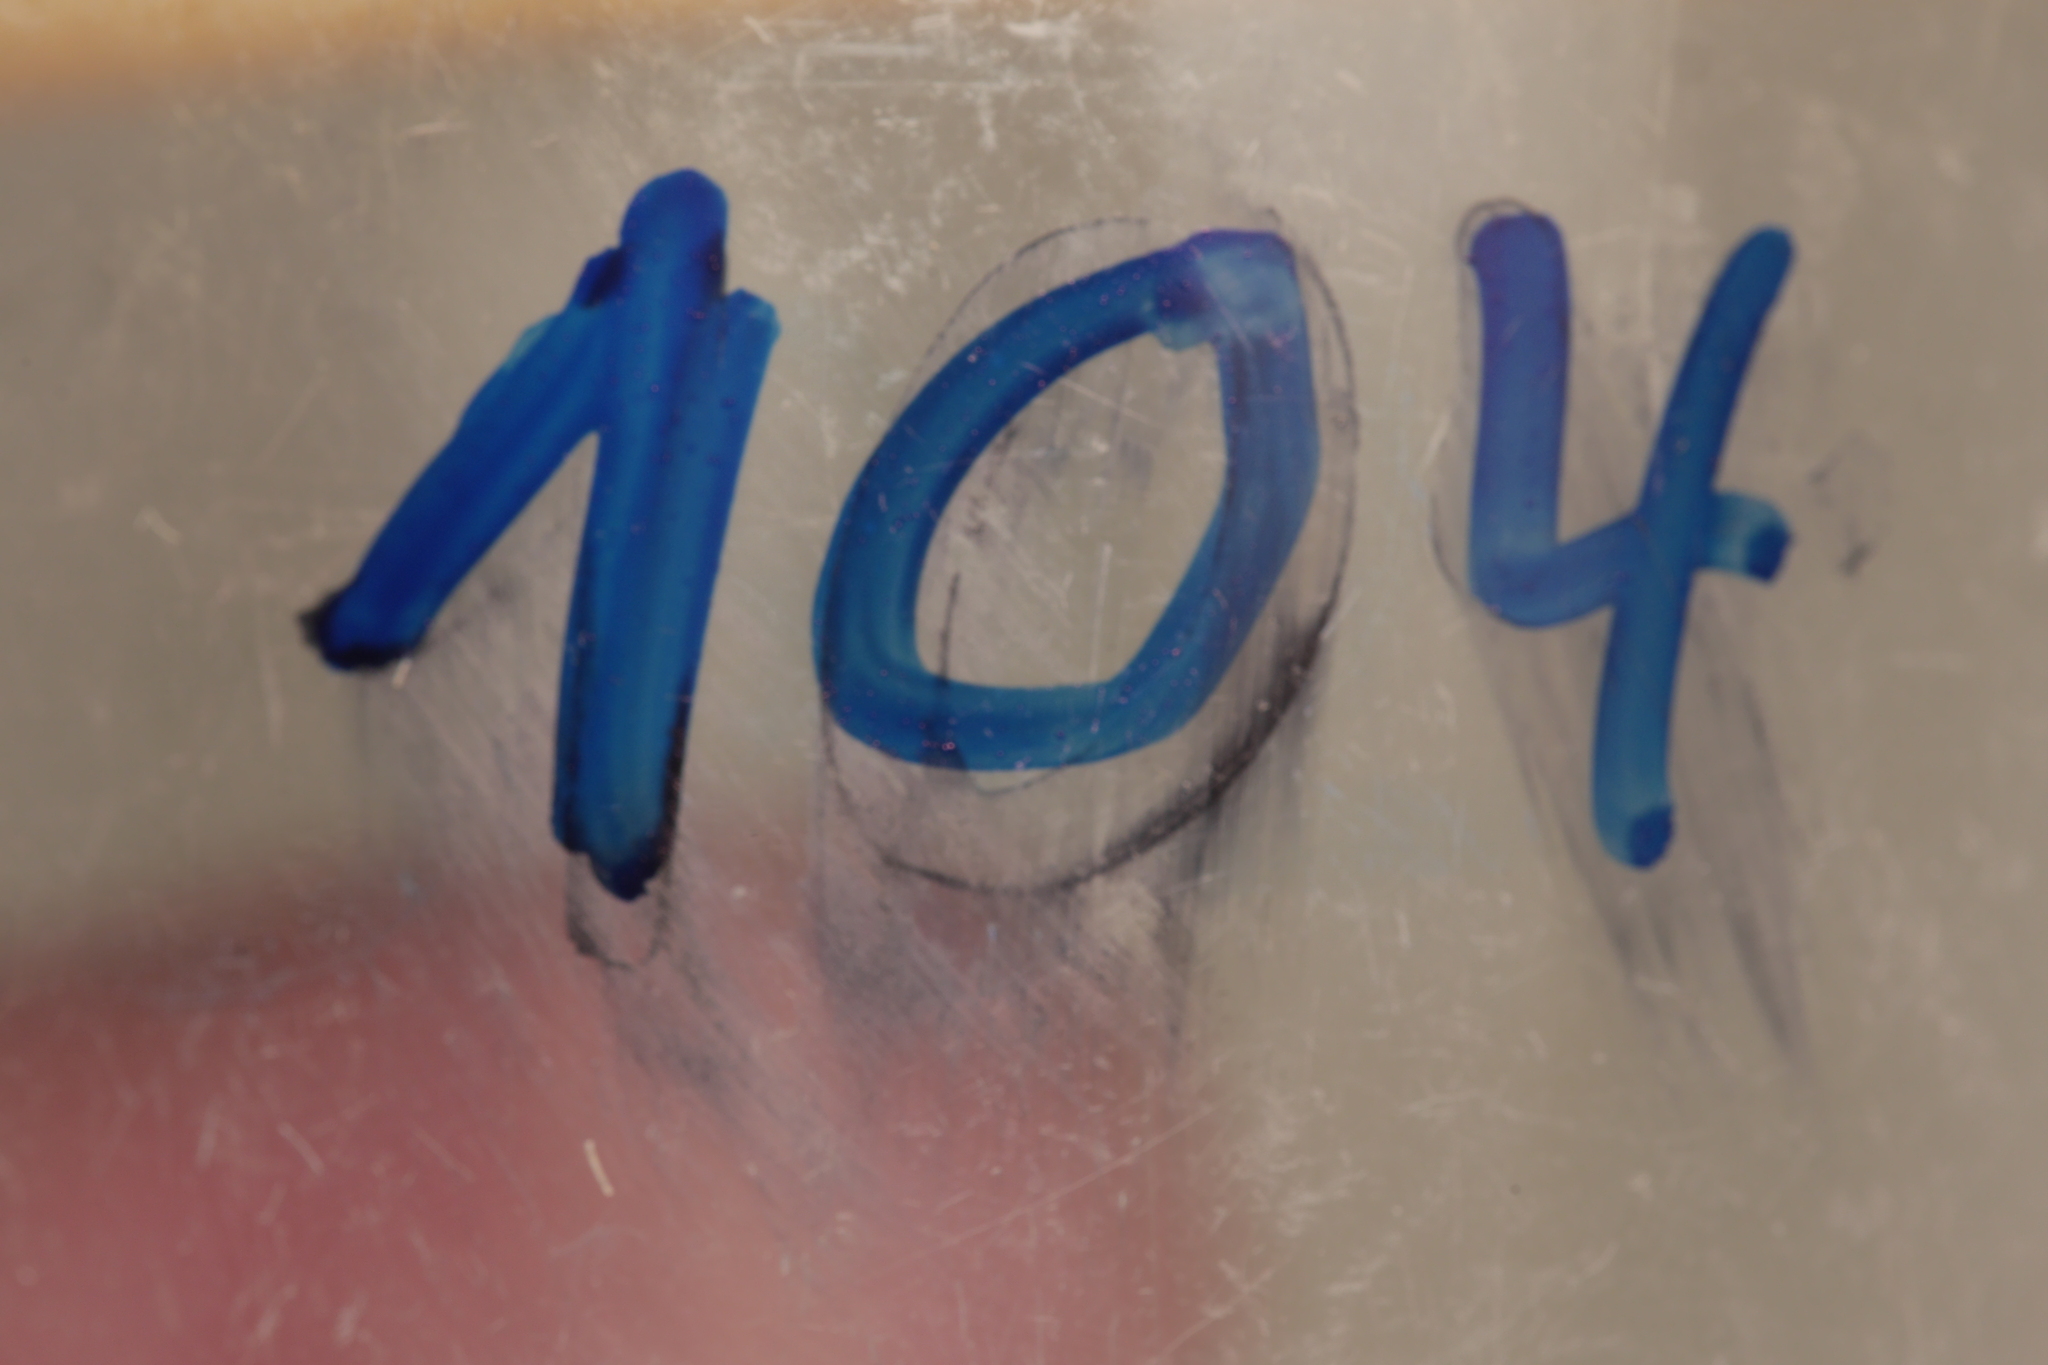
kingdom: Animalia
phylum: Arthropoda
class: Insecta
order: Orthoptera
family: Acrididae
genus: Chorthippus
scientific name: Chorthippus dorsatus
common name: Steppe grasshopper
